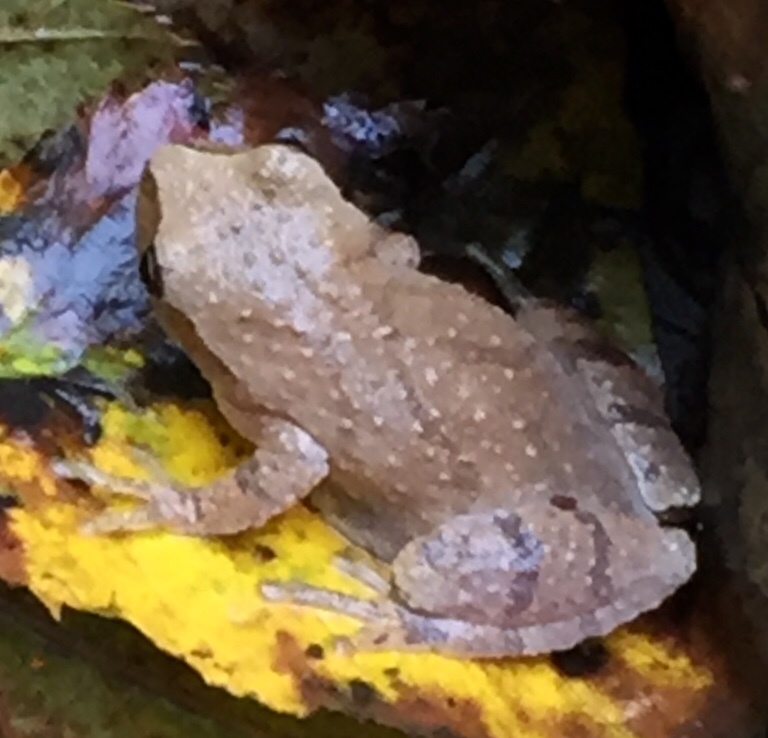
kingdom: Animalia
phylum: Chordata
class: Amphibia
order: Anura
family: Hylidae
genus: Pseudacris
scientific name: Pseudacris crucifer
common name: Spring peeper
